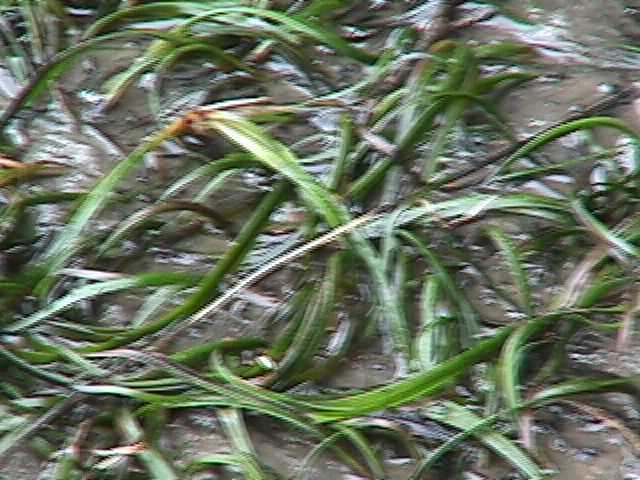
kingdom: Plantae
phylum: Tracheophyta
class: Liliopsida
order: Alismatales
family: Zosteraceae
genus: Zostera
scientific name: Zostera novazelandica
